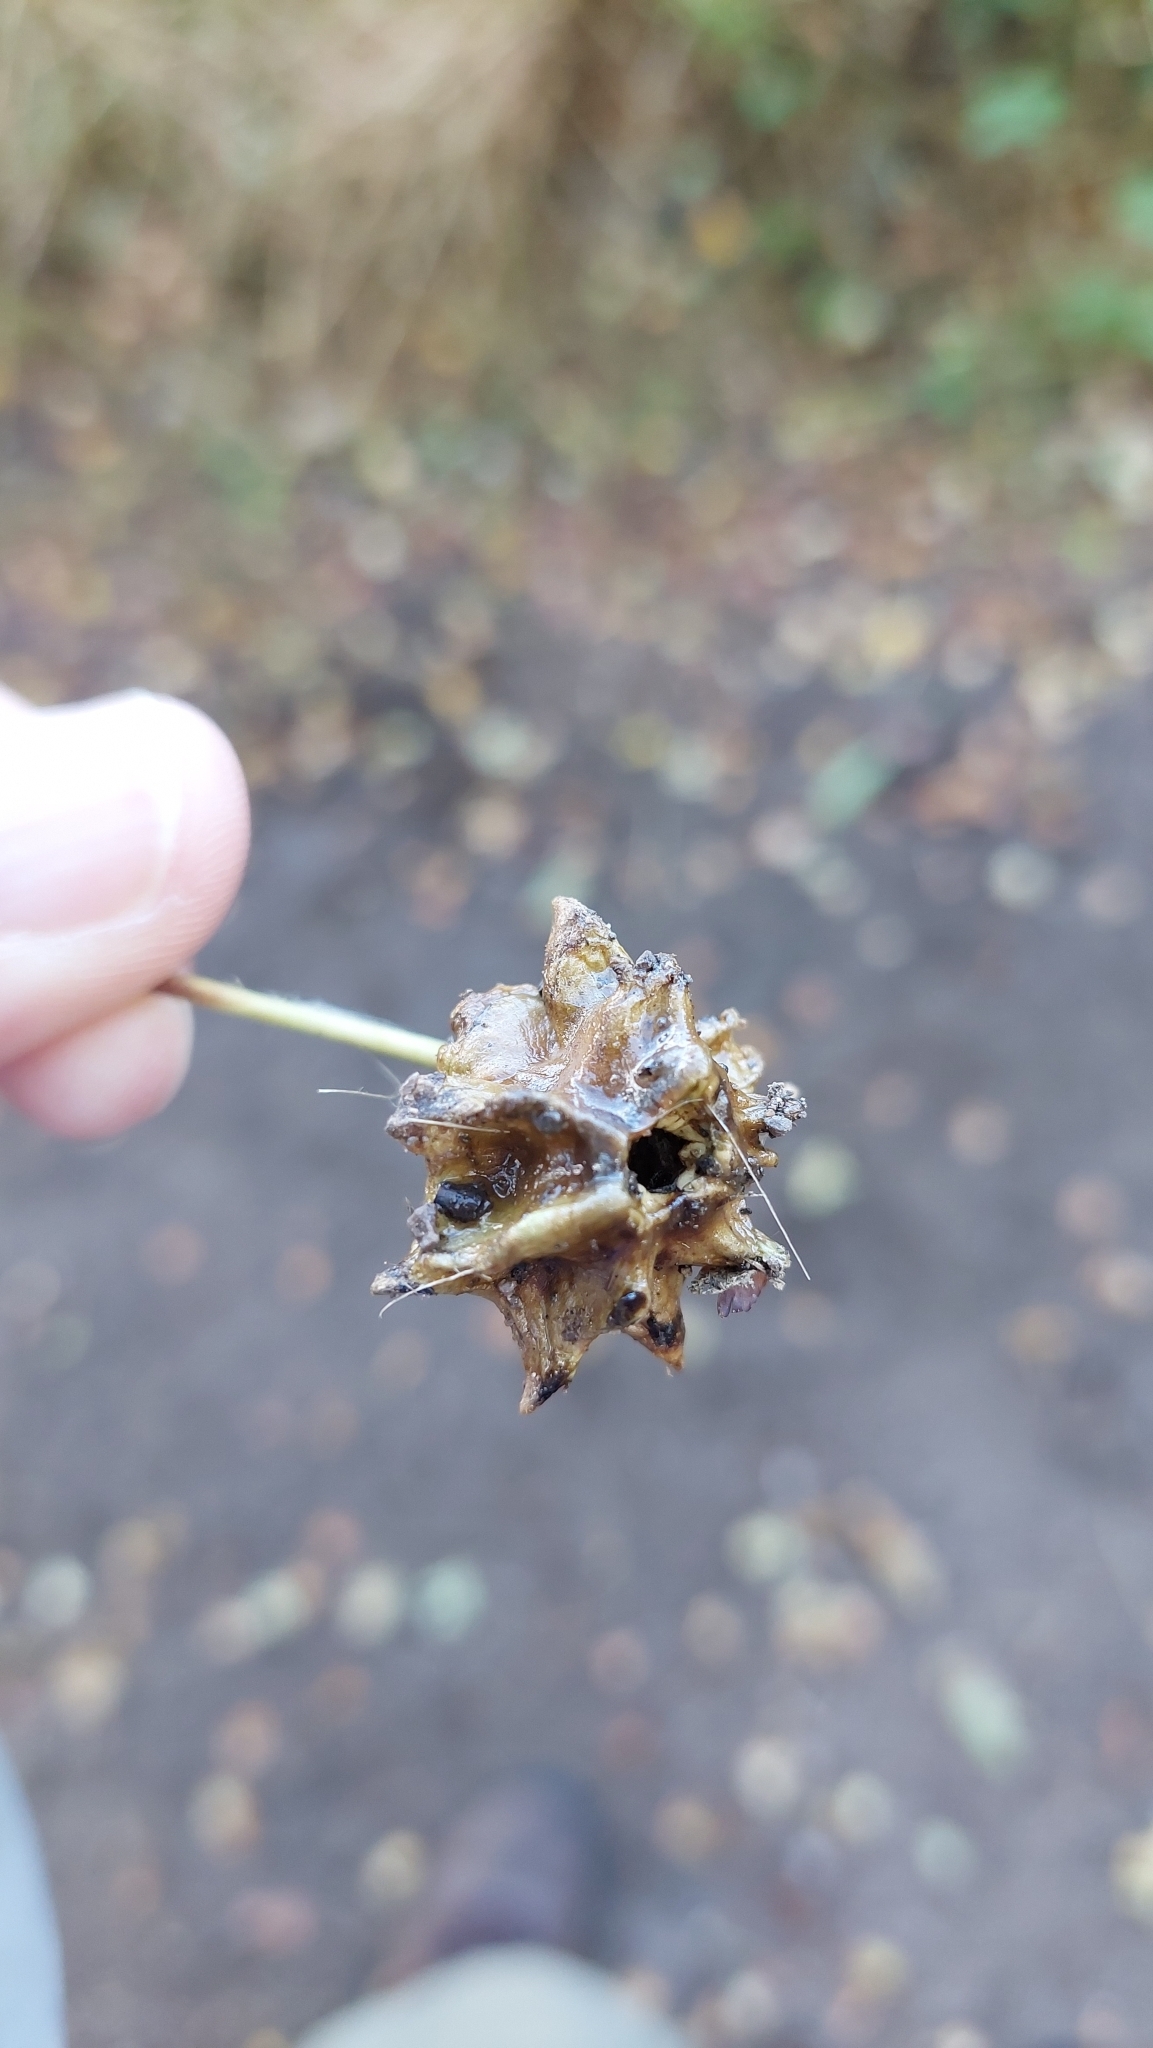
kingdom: Animalia
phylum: Arthropoda
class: Insecta
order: Hymenoptera
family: Cynipidae
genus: Andricus
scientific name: Andricus quercuscalicis
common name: Knopper gall
